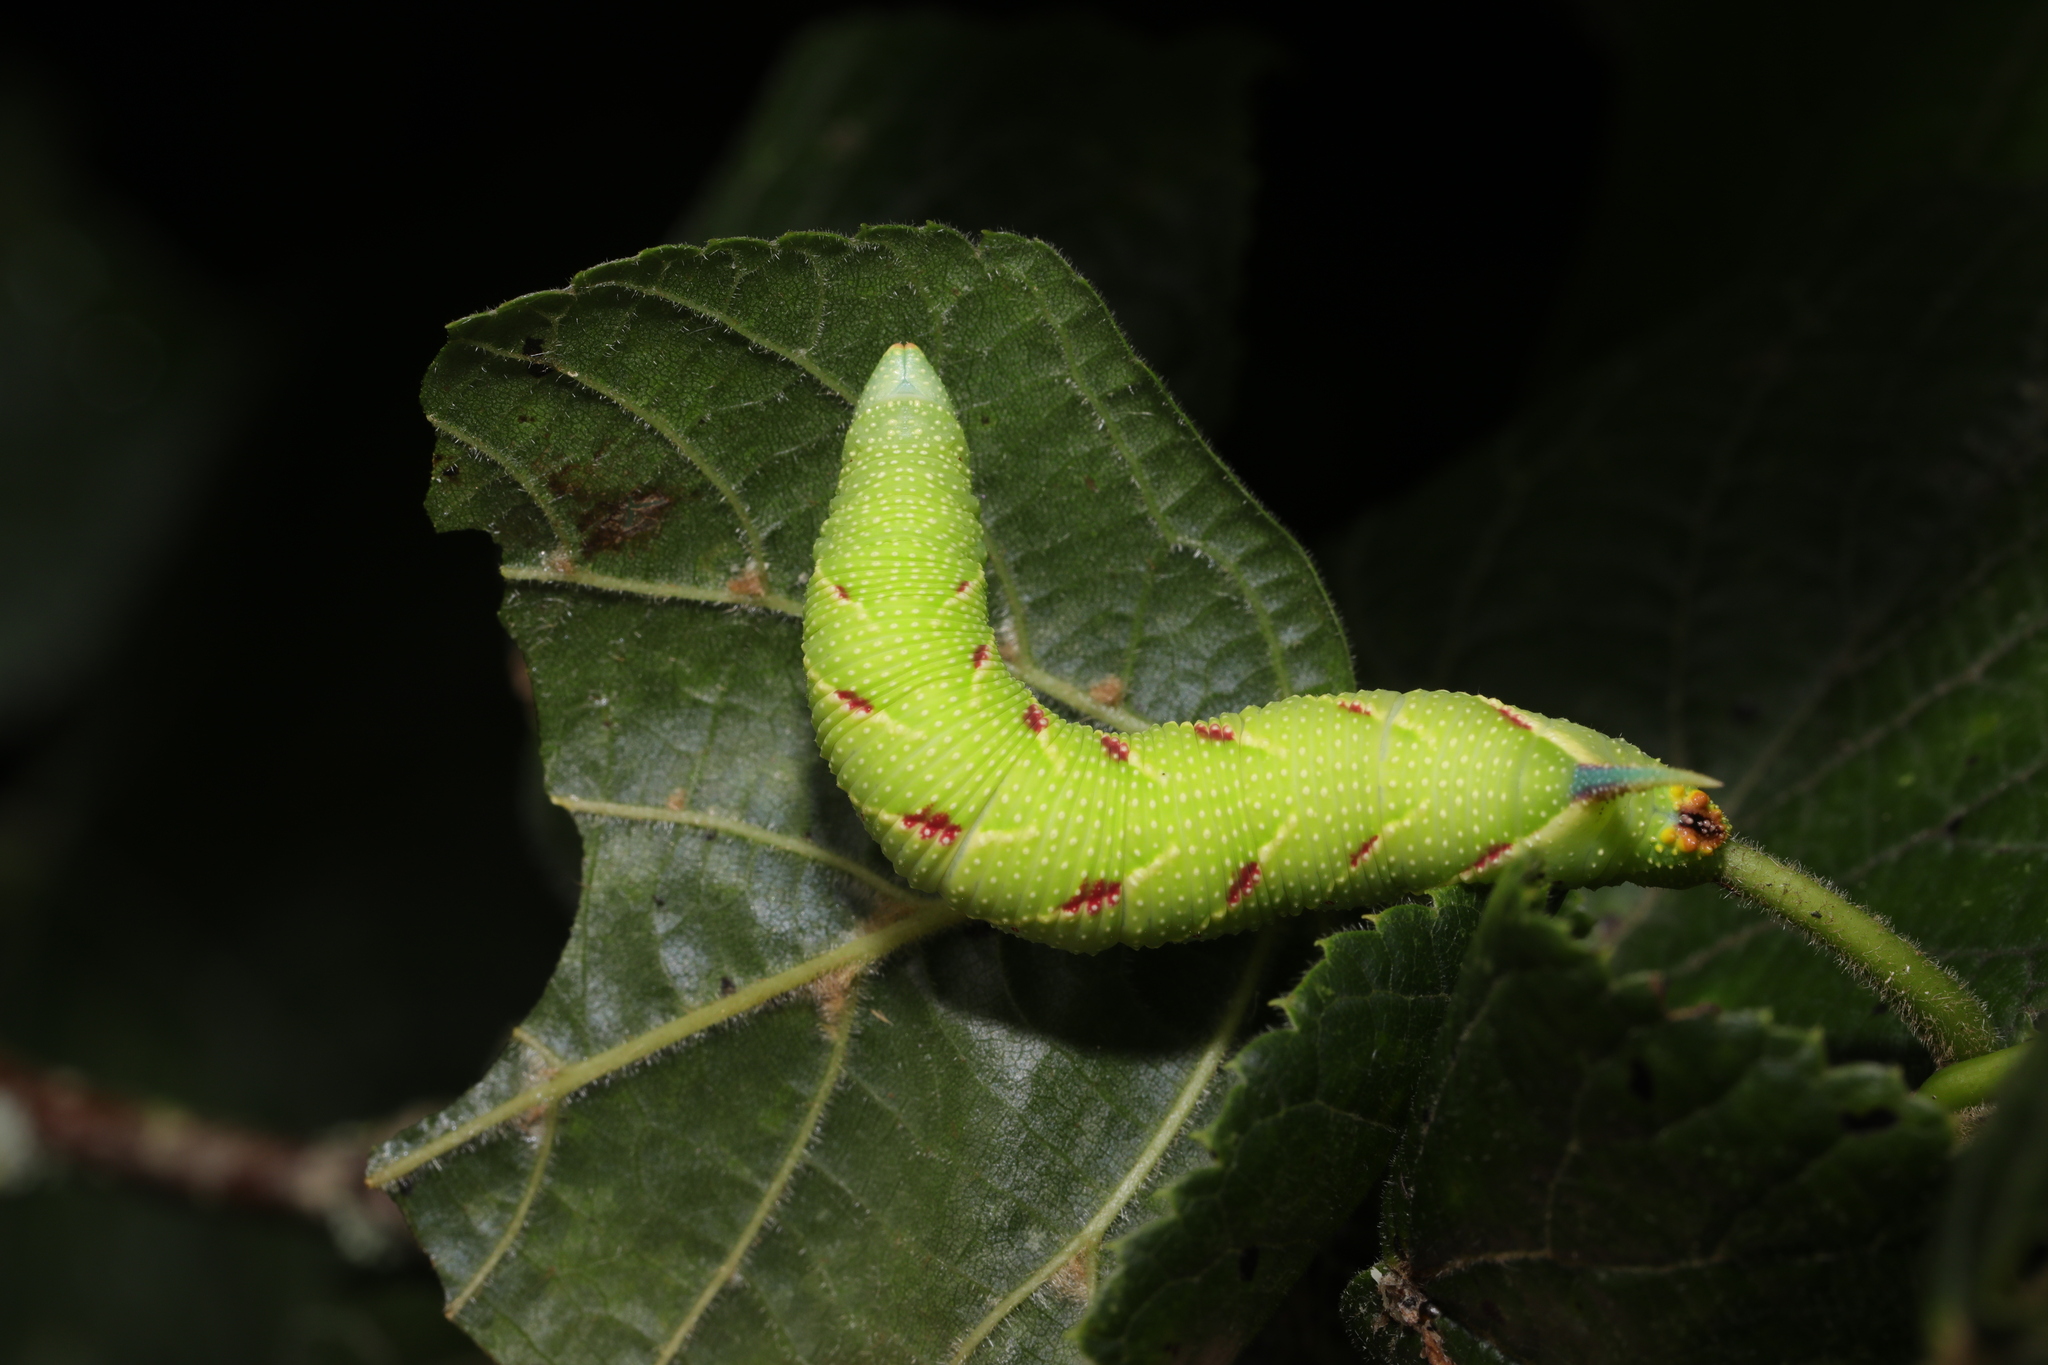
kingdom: Animalia
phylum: Arthropoda
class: Insecta
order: Lepidoptera
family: Sphingidae
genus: Mimas
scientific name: Mimas tiliae
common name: Lime hawk-moth
